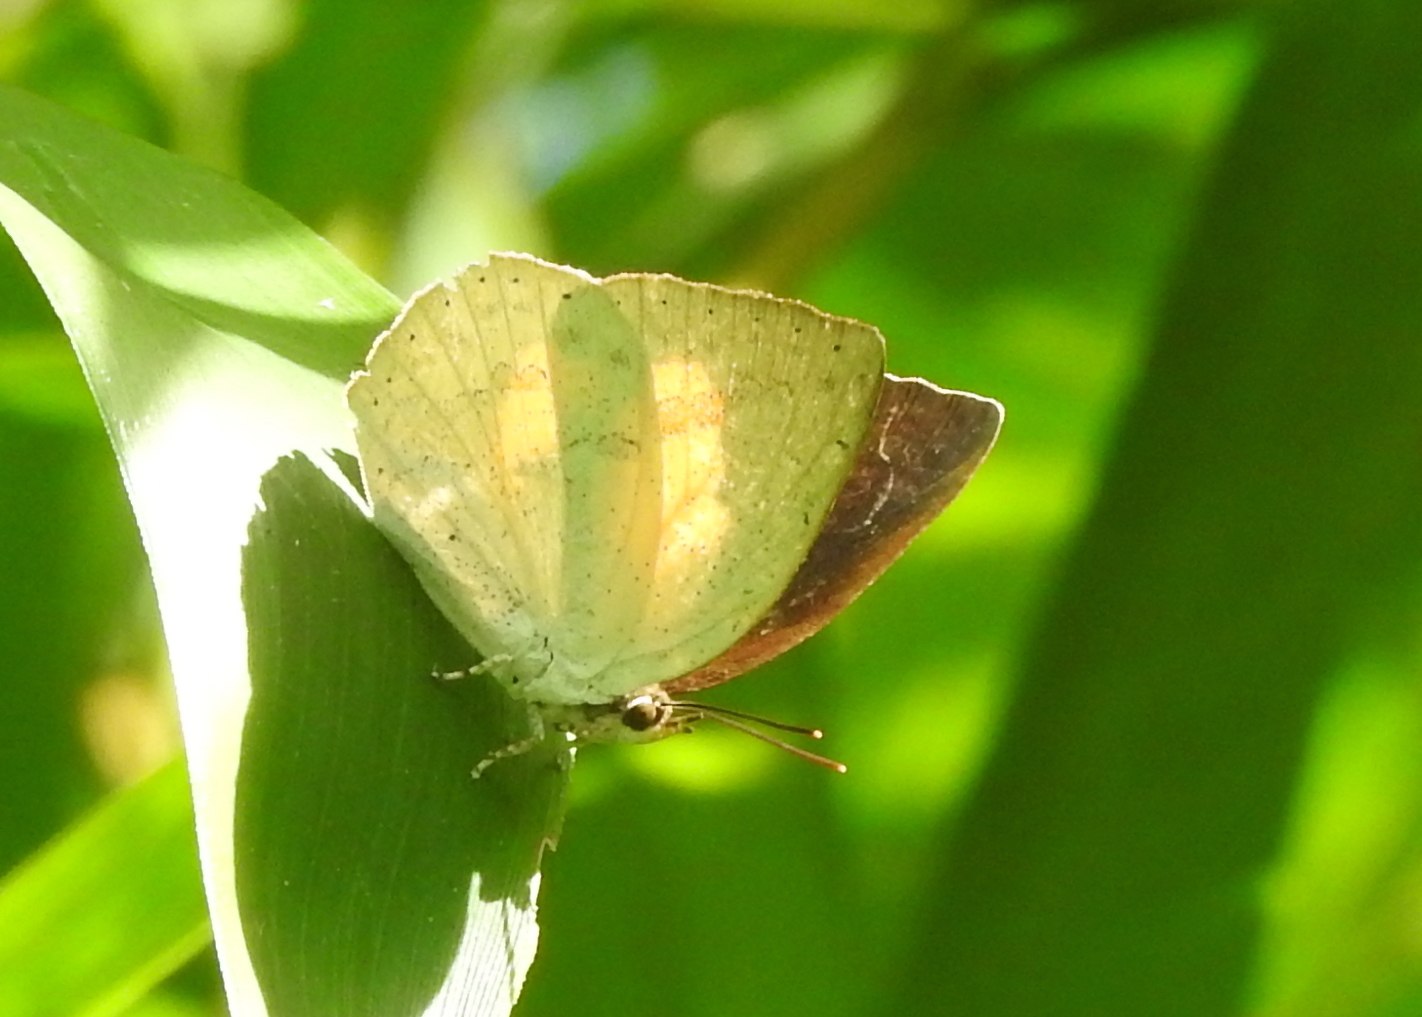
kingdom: Animalia
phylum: Arthropoda
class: Insecta
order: Lepidoptera
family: Lycaenidae
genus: Curetis
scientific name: Curetis santana
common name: Malayan sunbeam
